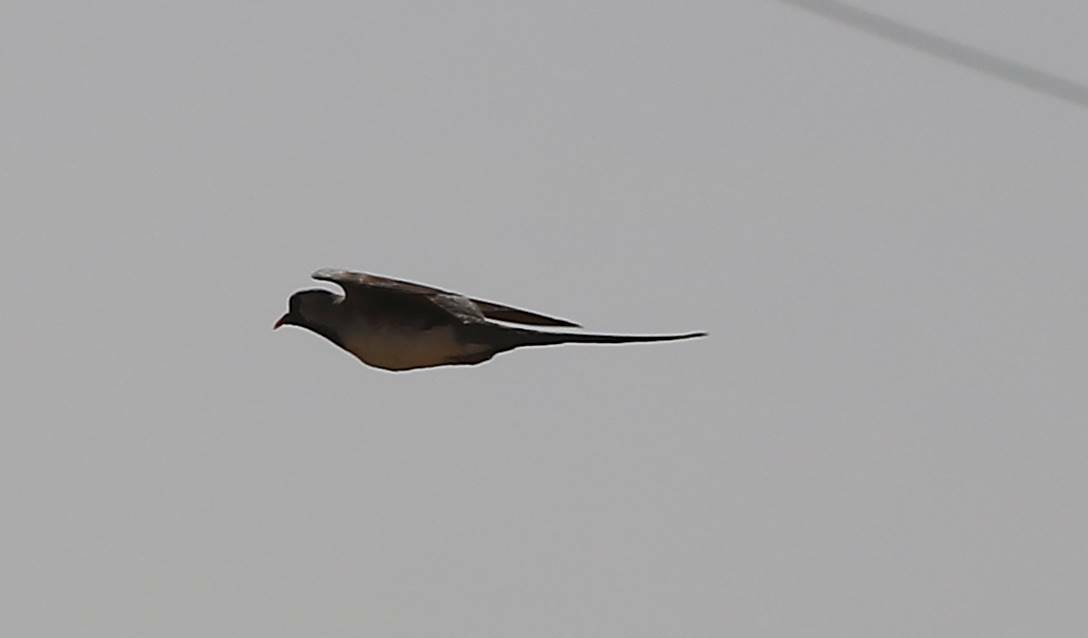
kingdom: Animalia
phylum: Chordata
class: Aves
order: Columbiformes
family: Columbidae
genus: Oena
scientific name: Oena capensis
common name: Namaqua dove
